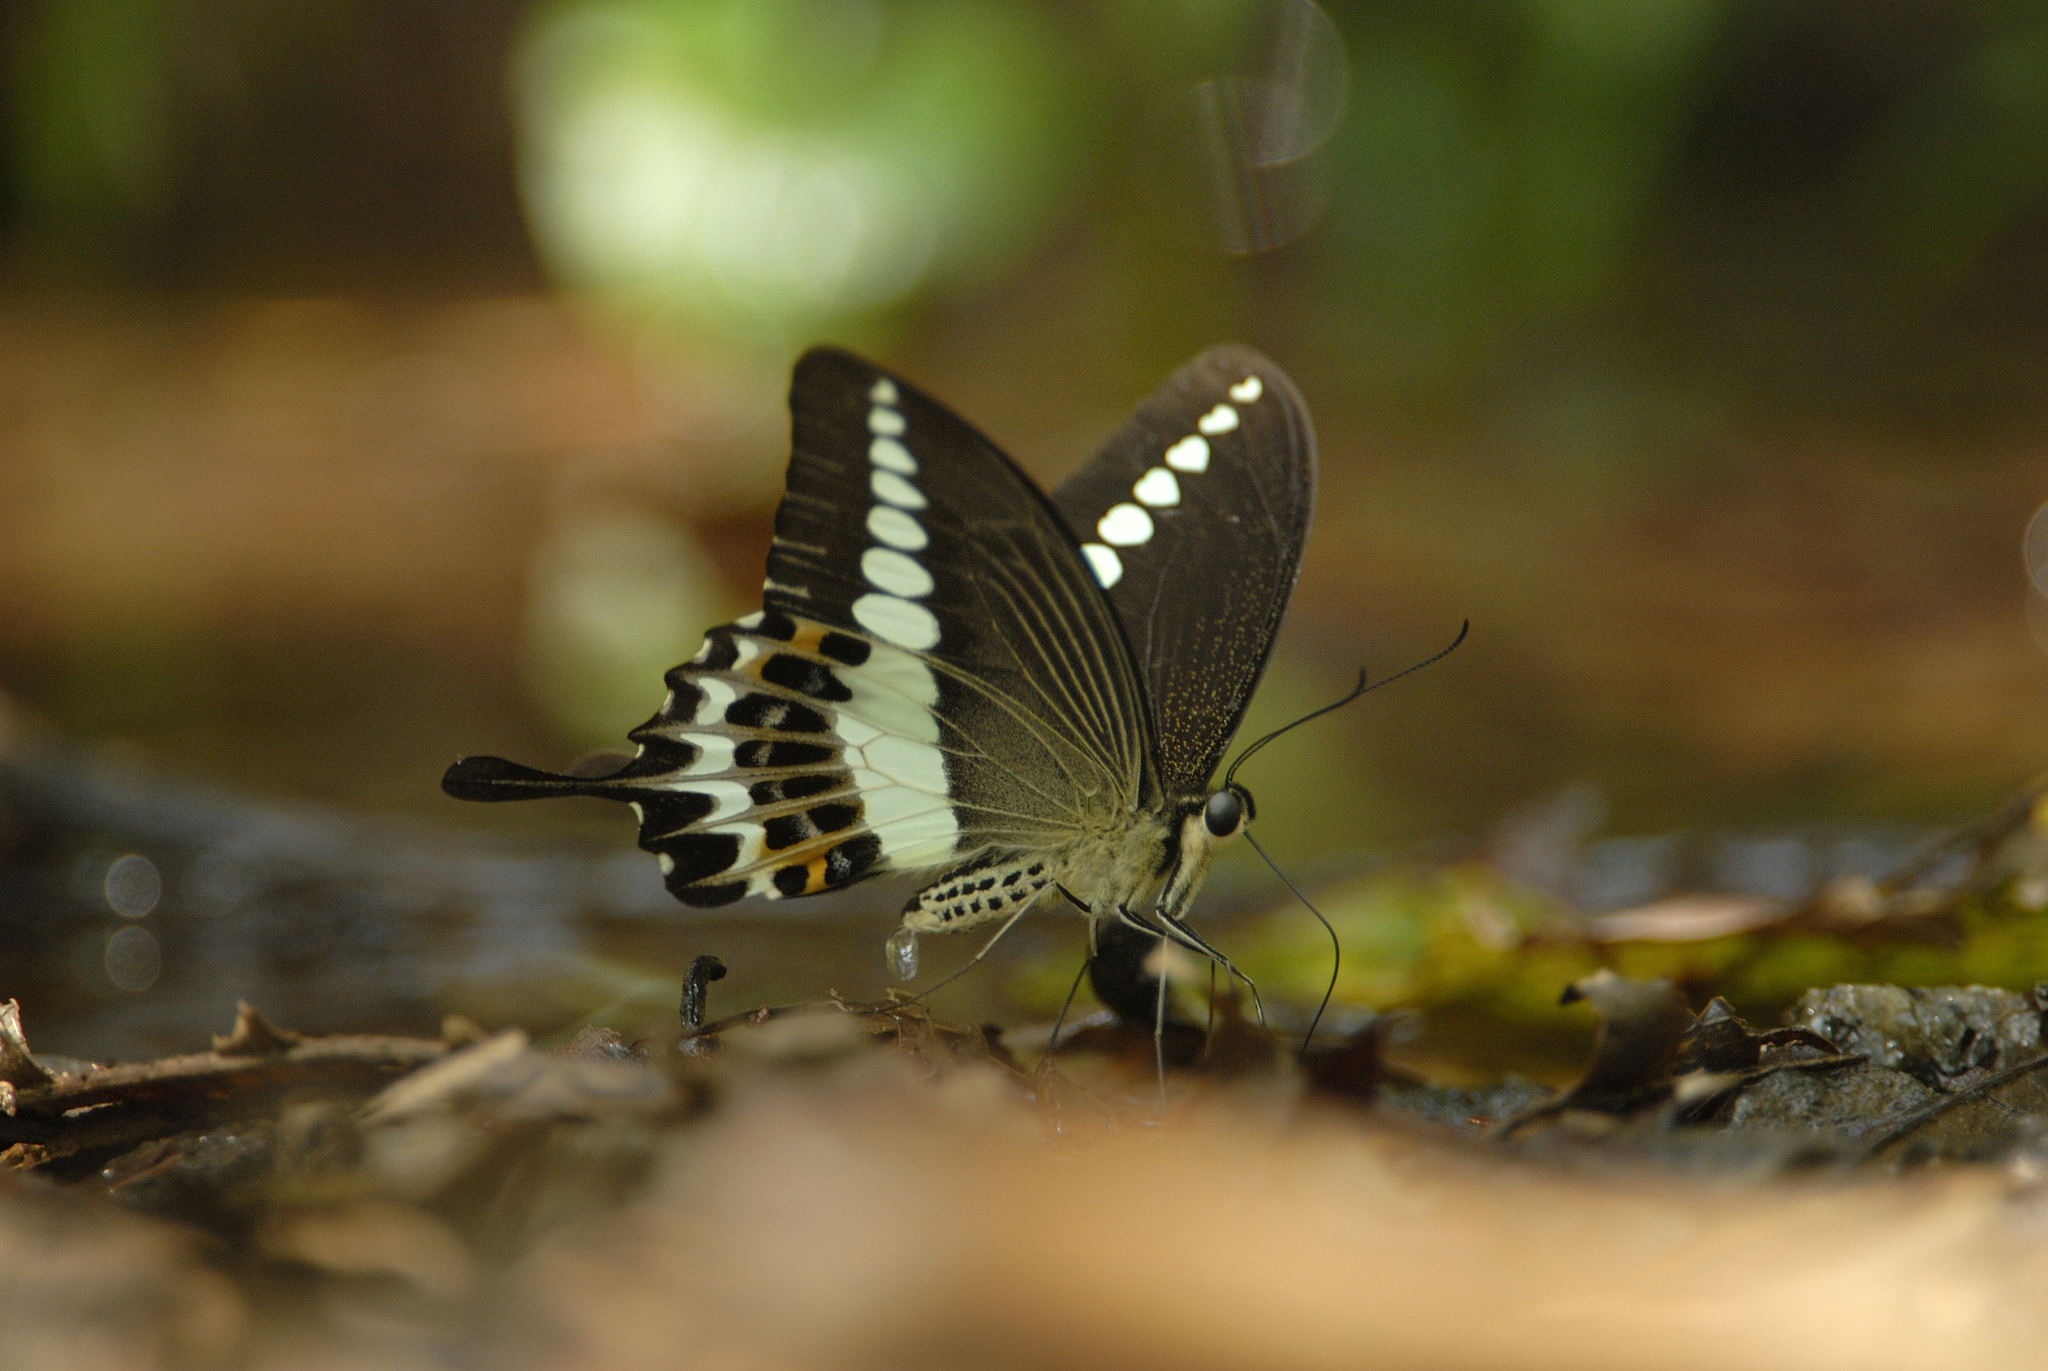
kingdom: Animalia
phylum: Arthropoda
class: Insecta
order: Lepidoptera
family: Papilionidae
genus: Papilio
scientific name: Papilio liomedon
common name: Malabar banded swallowtail
